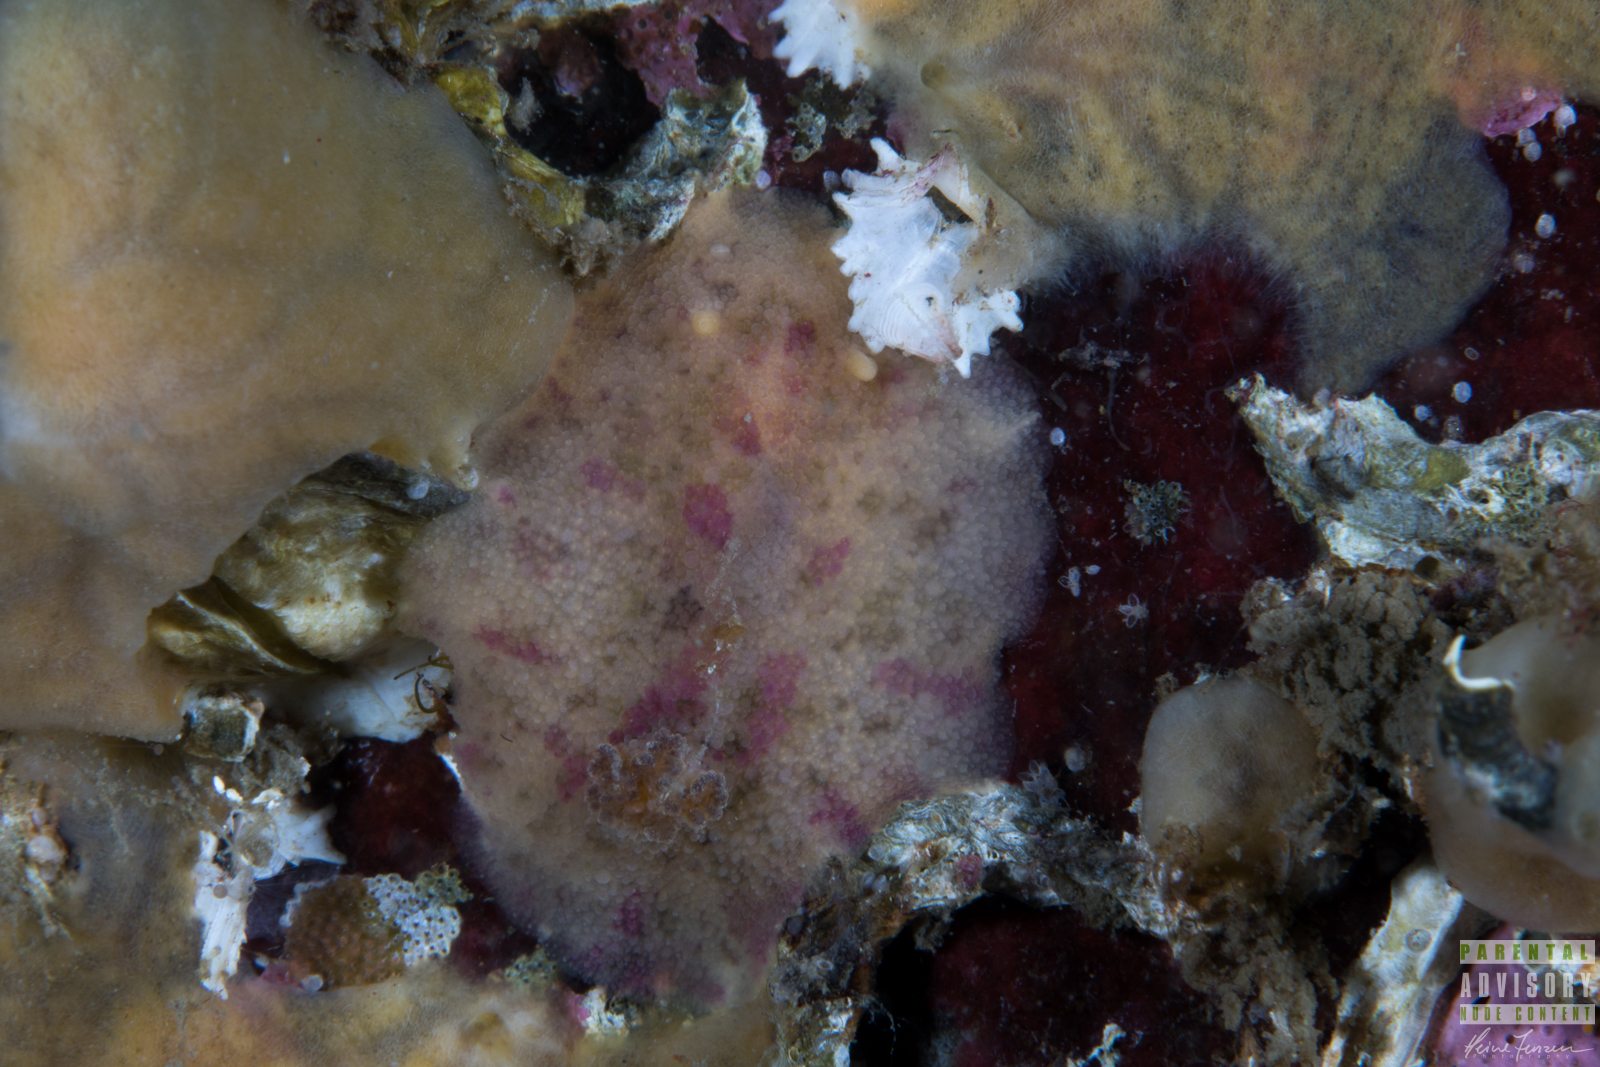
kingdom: Animalia
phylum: Mollusca
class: Gastropoda
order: Nudibranchia
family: Dorididae
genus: Doris
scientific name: Doris pseudoargus
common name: Sea lemon
